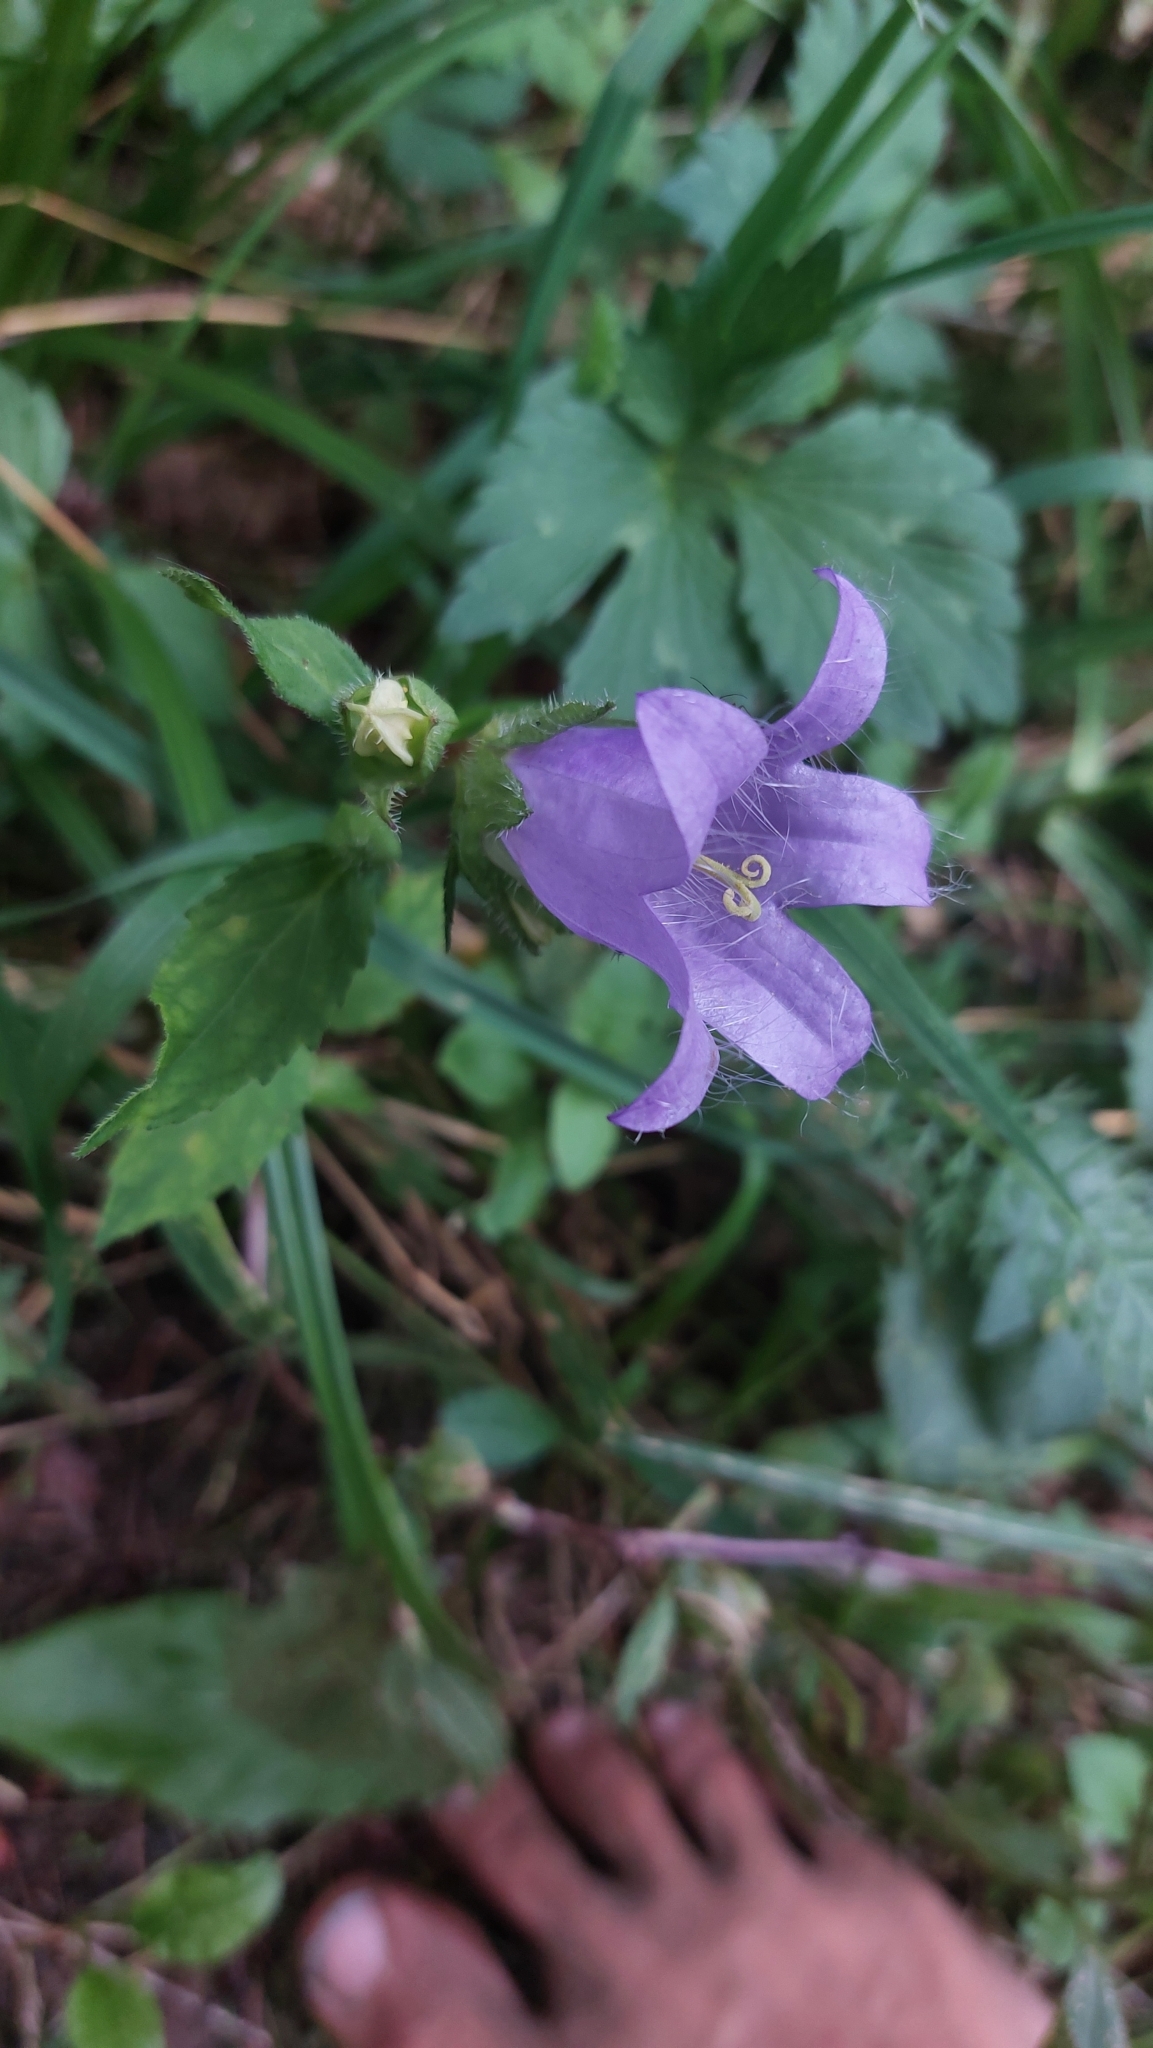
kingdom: Plantae
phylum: Tracheophyta
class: Magnoliopsida
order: Asterales
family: Campanulaceae
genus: Campanula
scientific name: Campanula trachelium
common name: Nettle-leaved bellflower
